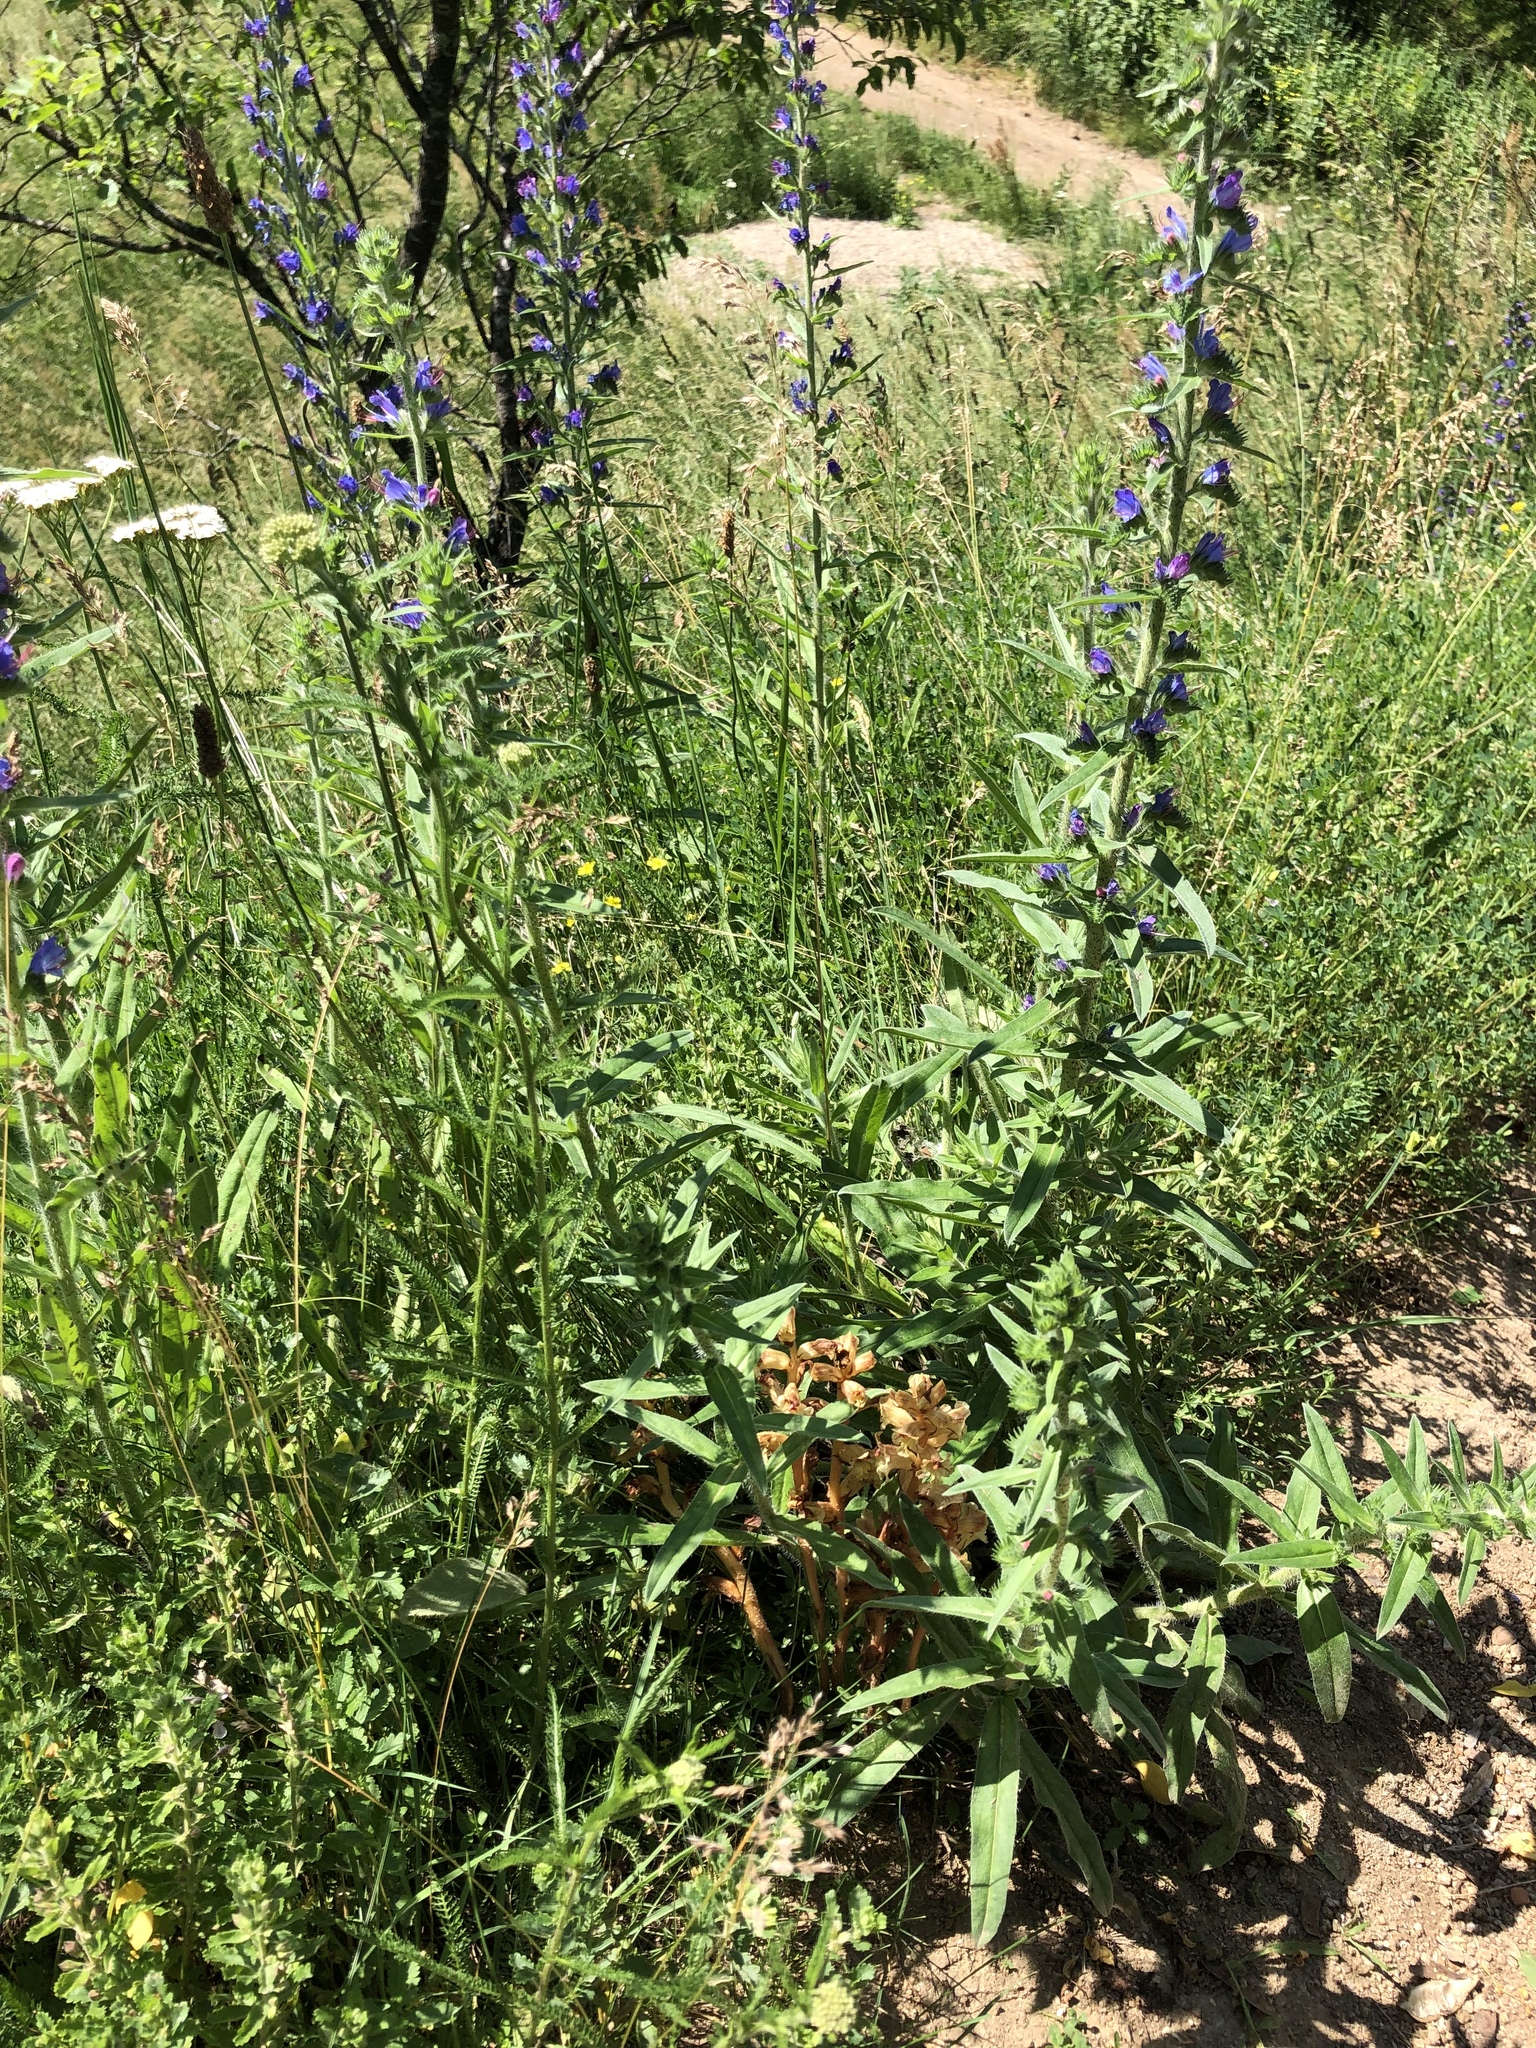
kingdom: Plantae
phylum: Tracheophyta
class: Magnoliopsida
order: Lamiales
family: Orobanchaceae
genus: Orobanche
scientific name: Orobanche alba
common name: Thyme broomrape
